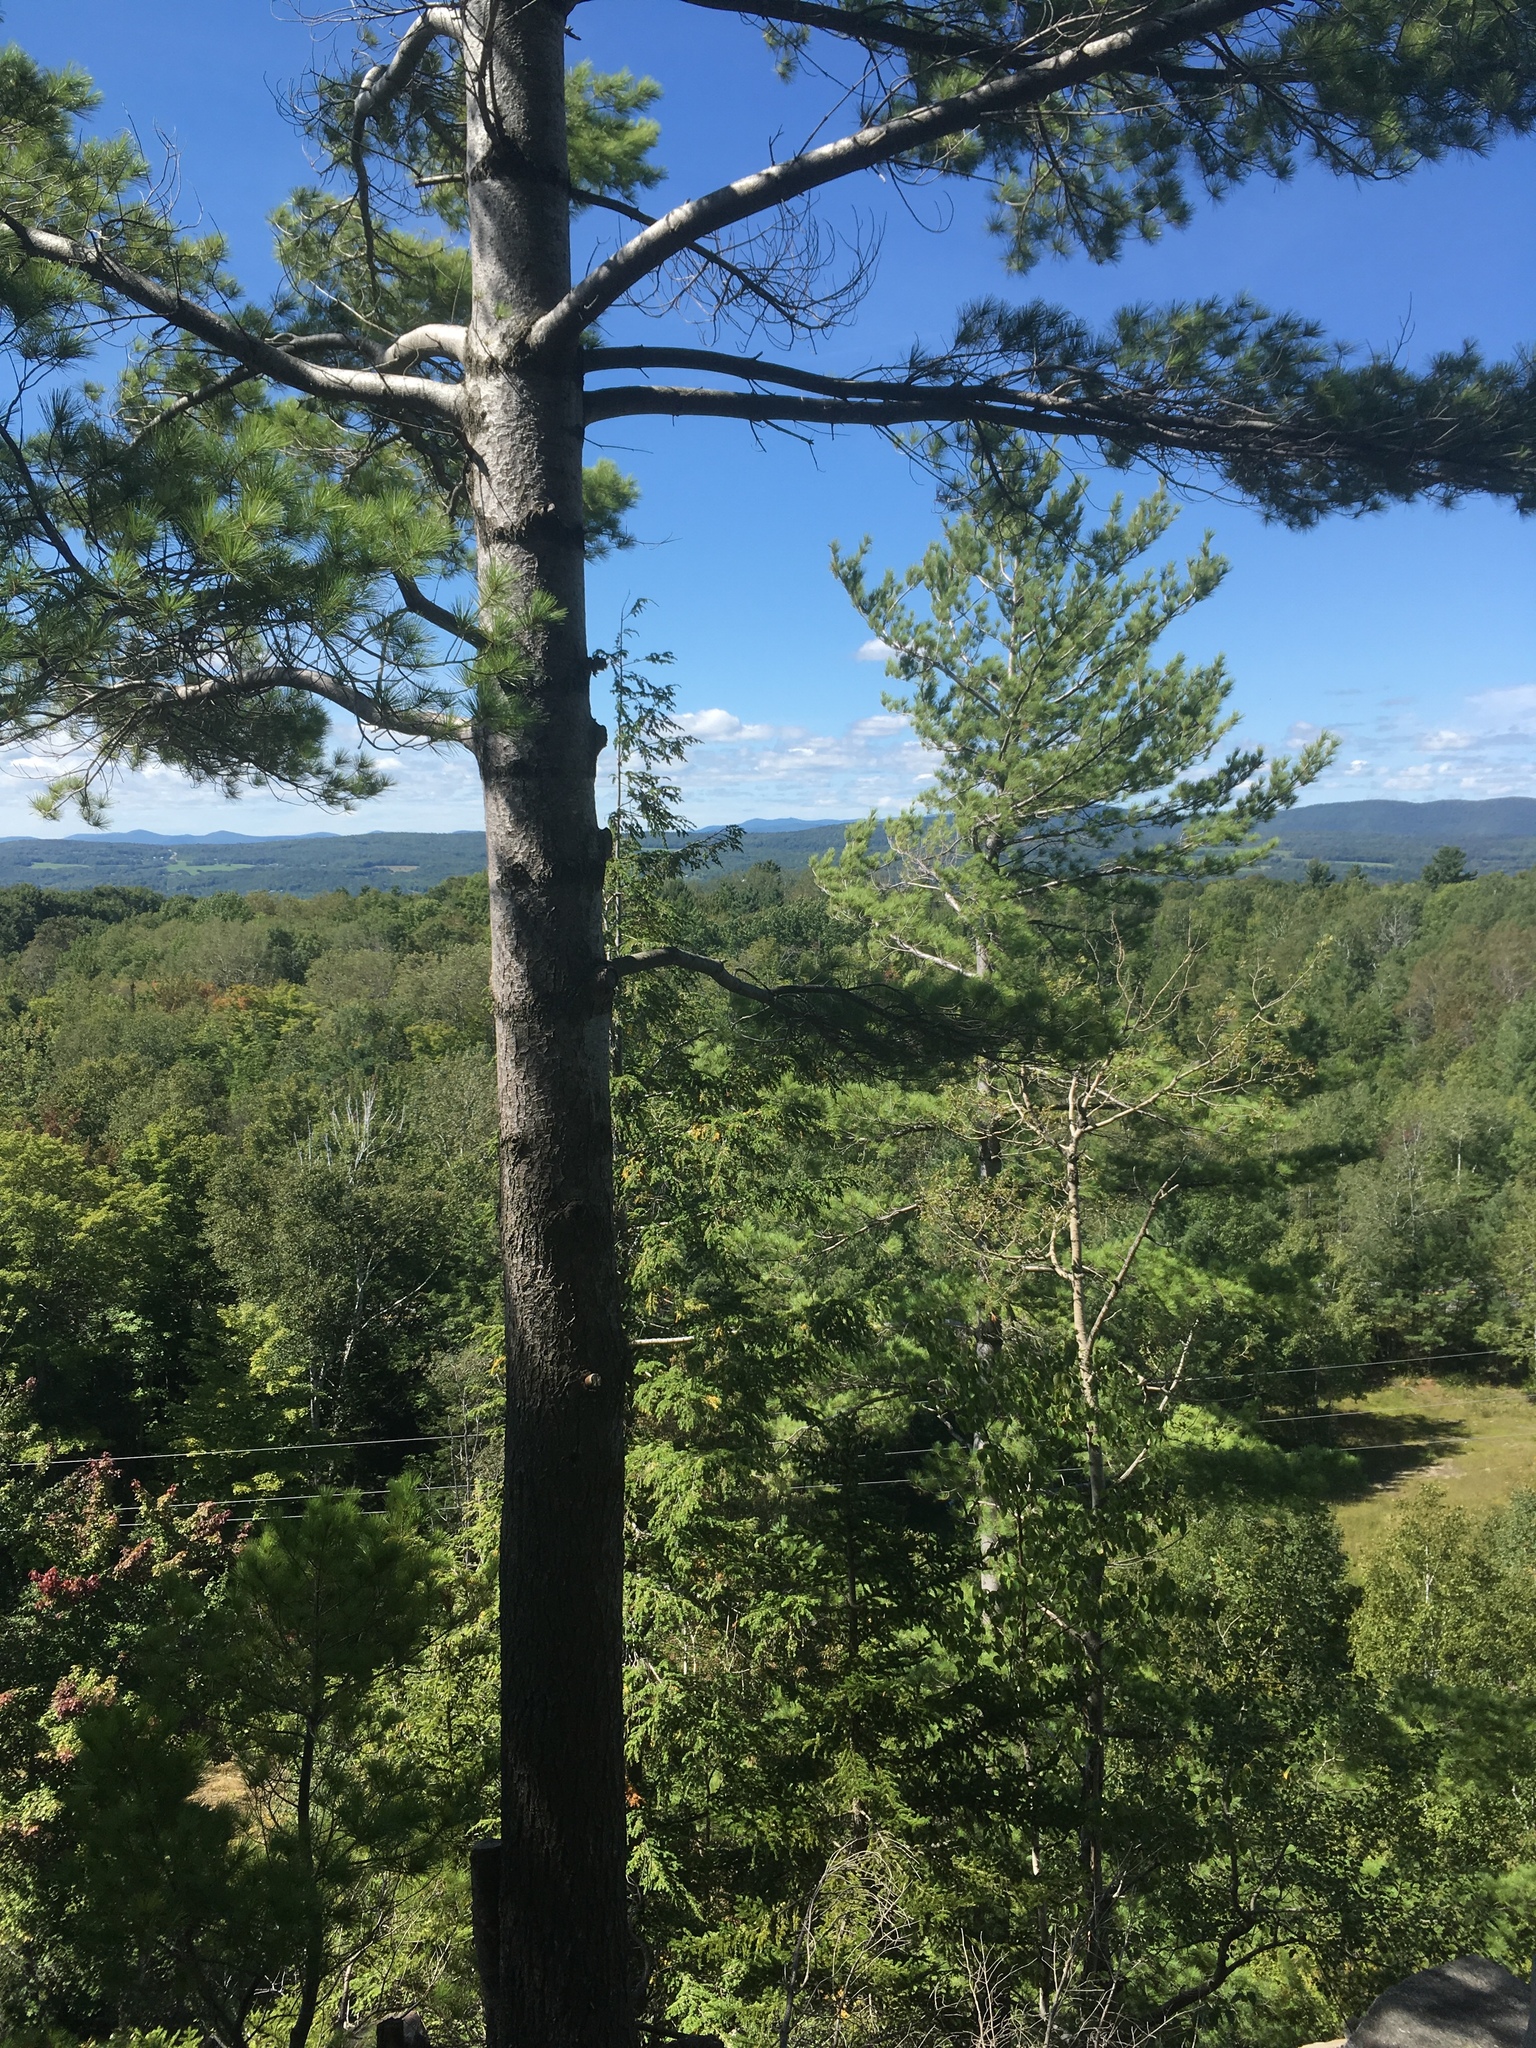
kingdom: Plantae
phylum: Tracheophyta
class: Pinopsida
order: Pinales
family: Pinaceae
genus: Pinus
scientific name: Pinus strobus
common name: Weymouth pine
